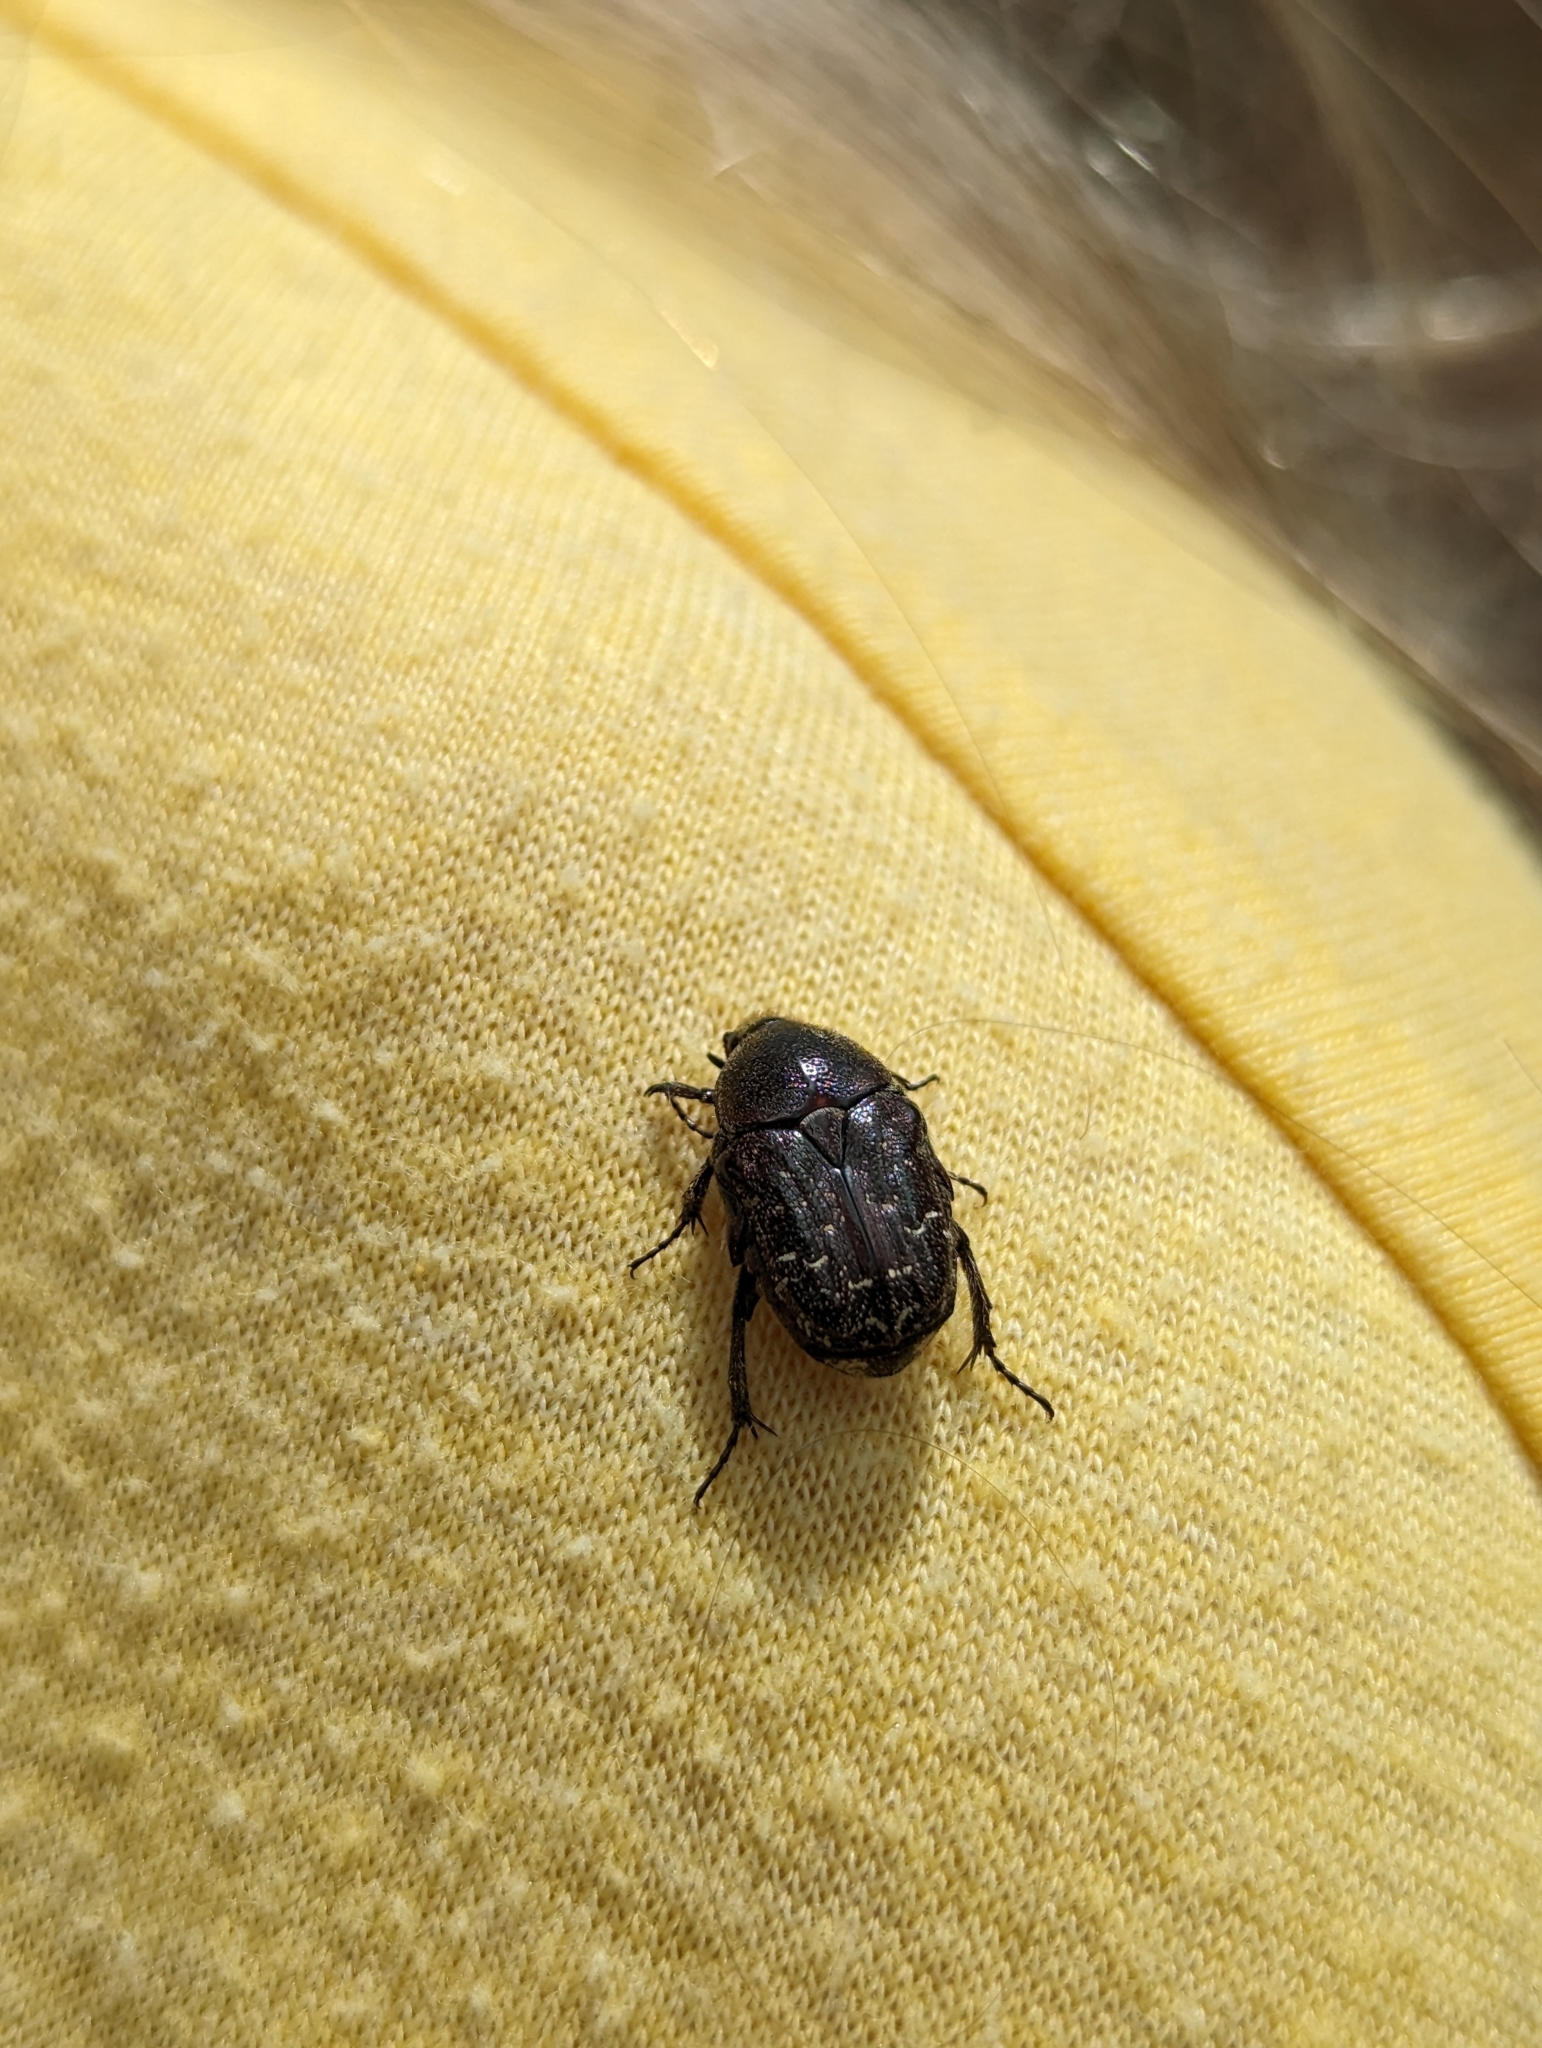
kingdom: Animalia
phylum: Arthropoda
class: Insecta
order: Coleoptera
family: Scarabaeidae
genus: Euphoria
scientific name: Euphoria sepulcralis
